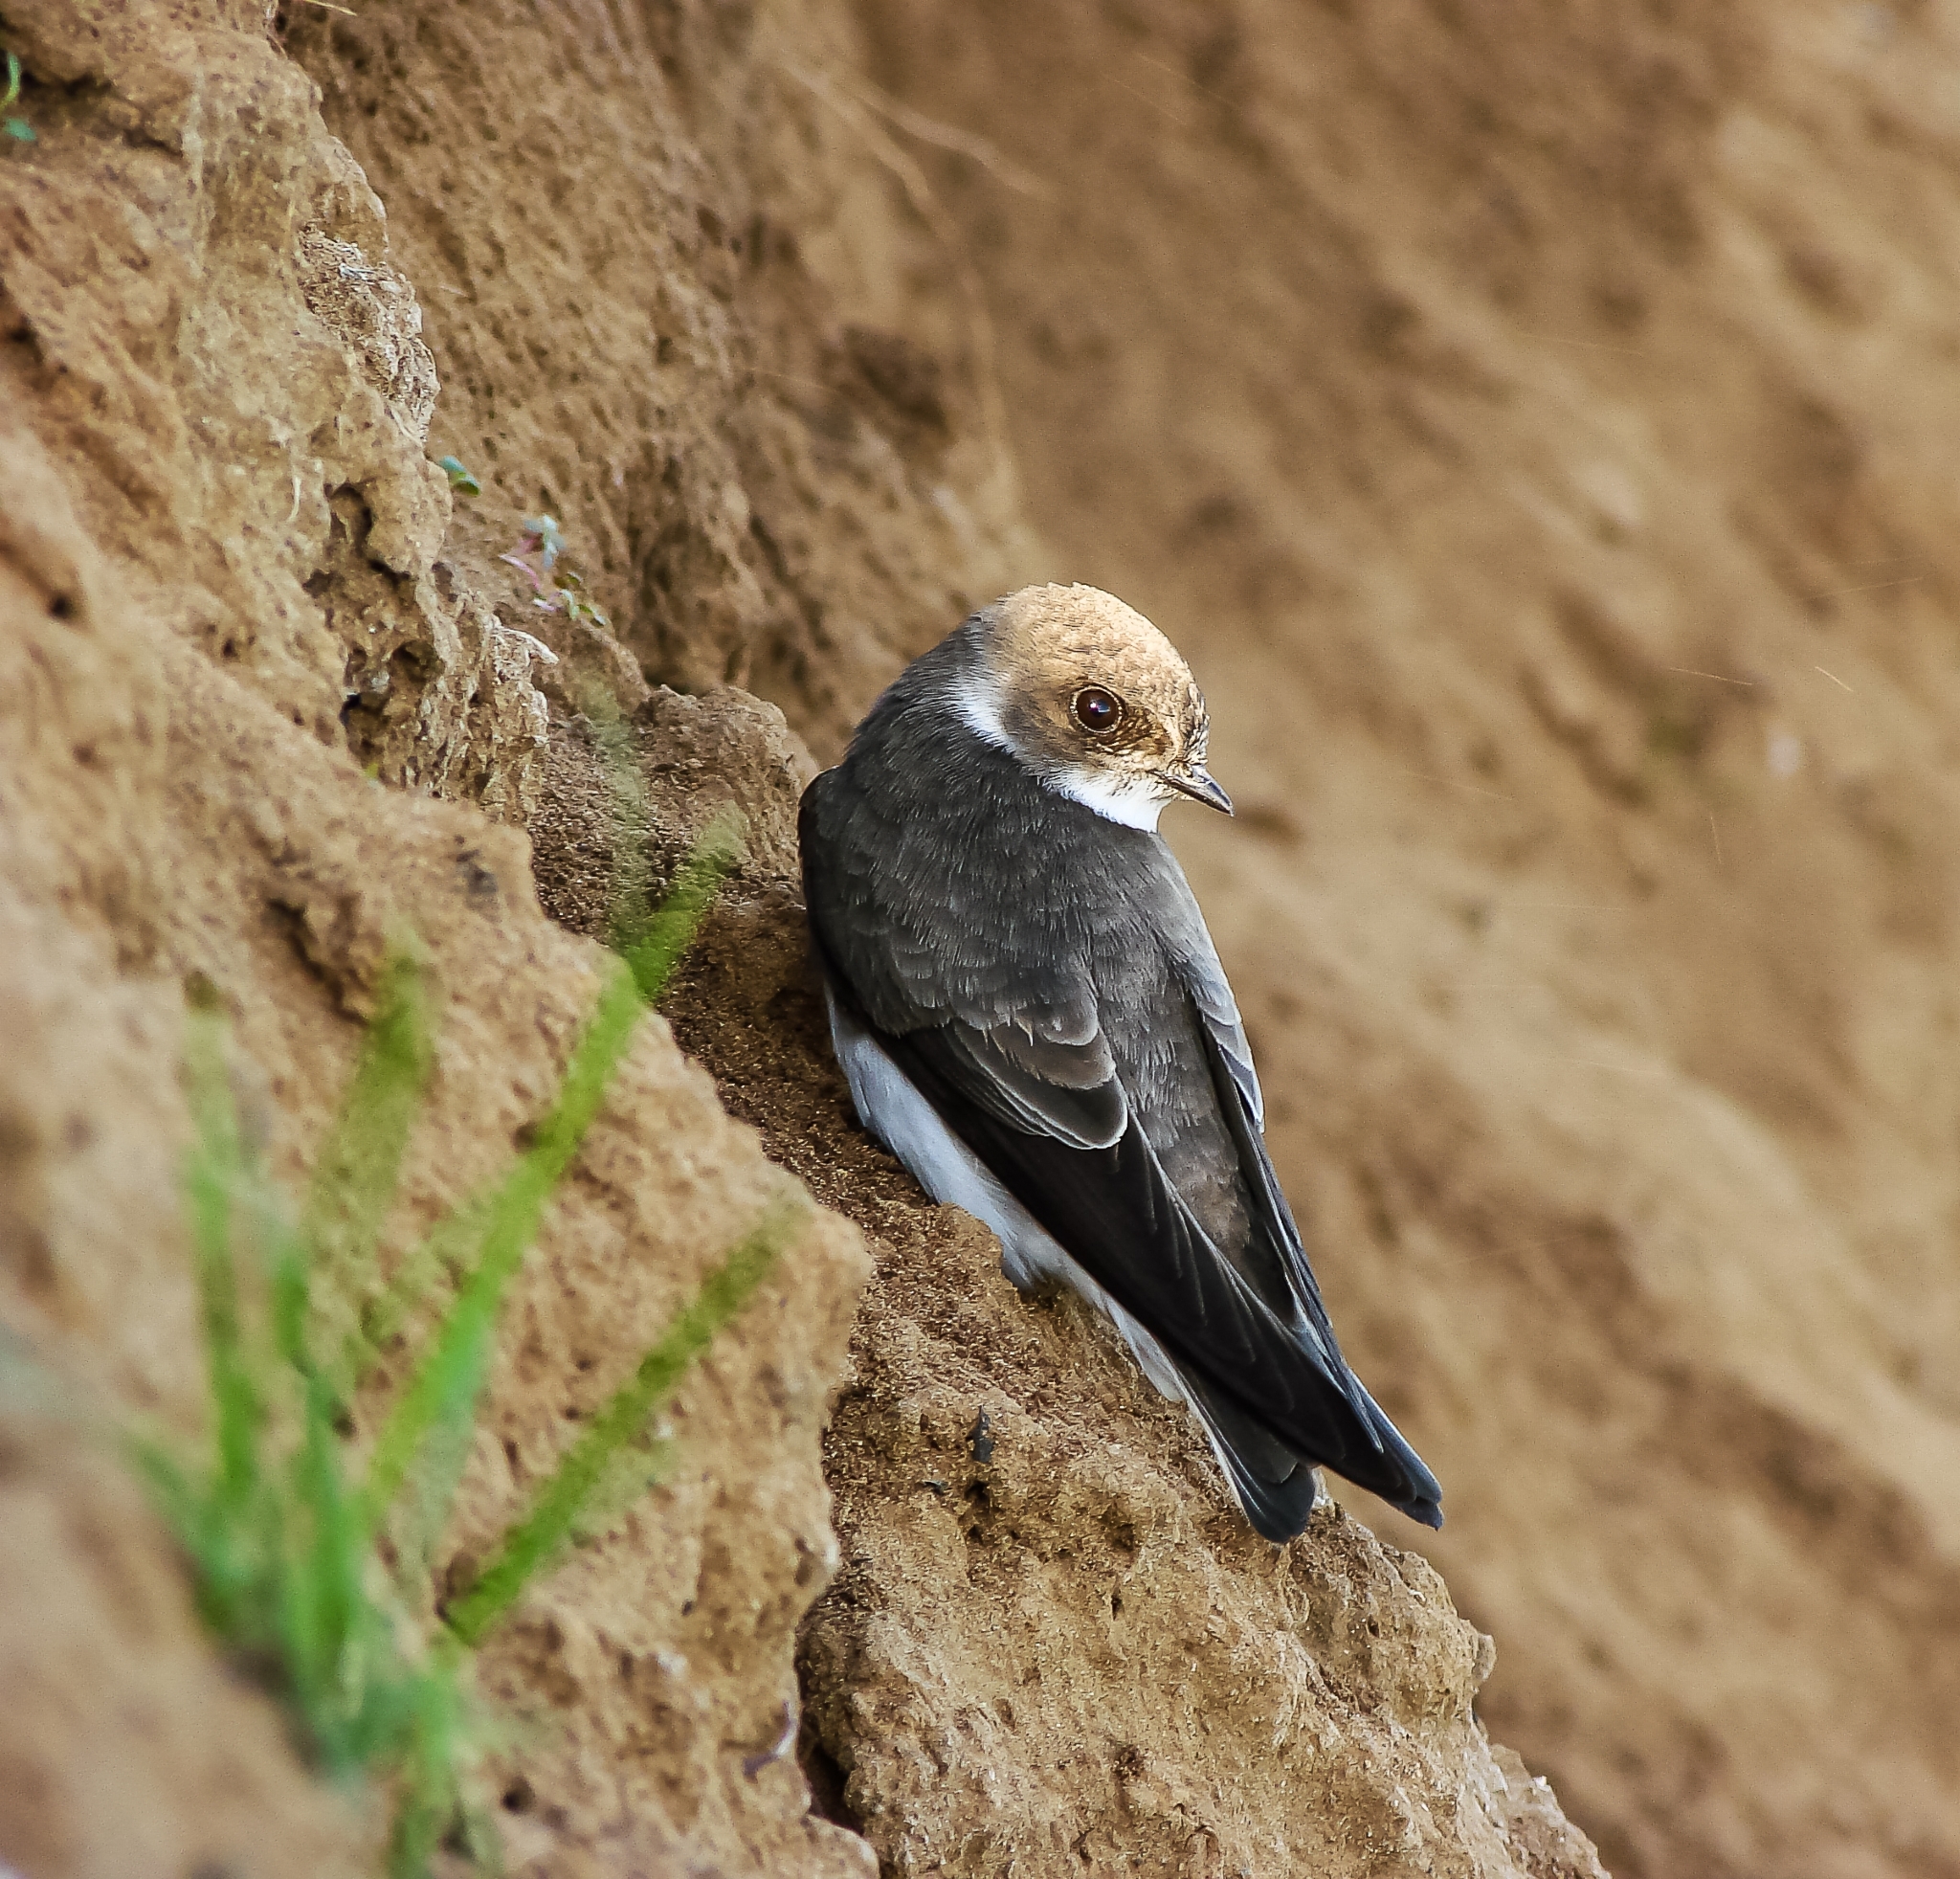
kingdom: Animalia
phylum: Chordata
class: Aves
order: Passeriformes
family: Hirundinidae
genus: Riparia
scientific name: Riparia riparia
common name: Sand martin
